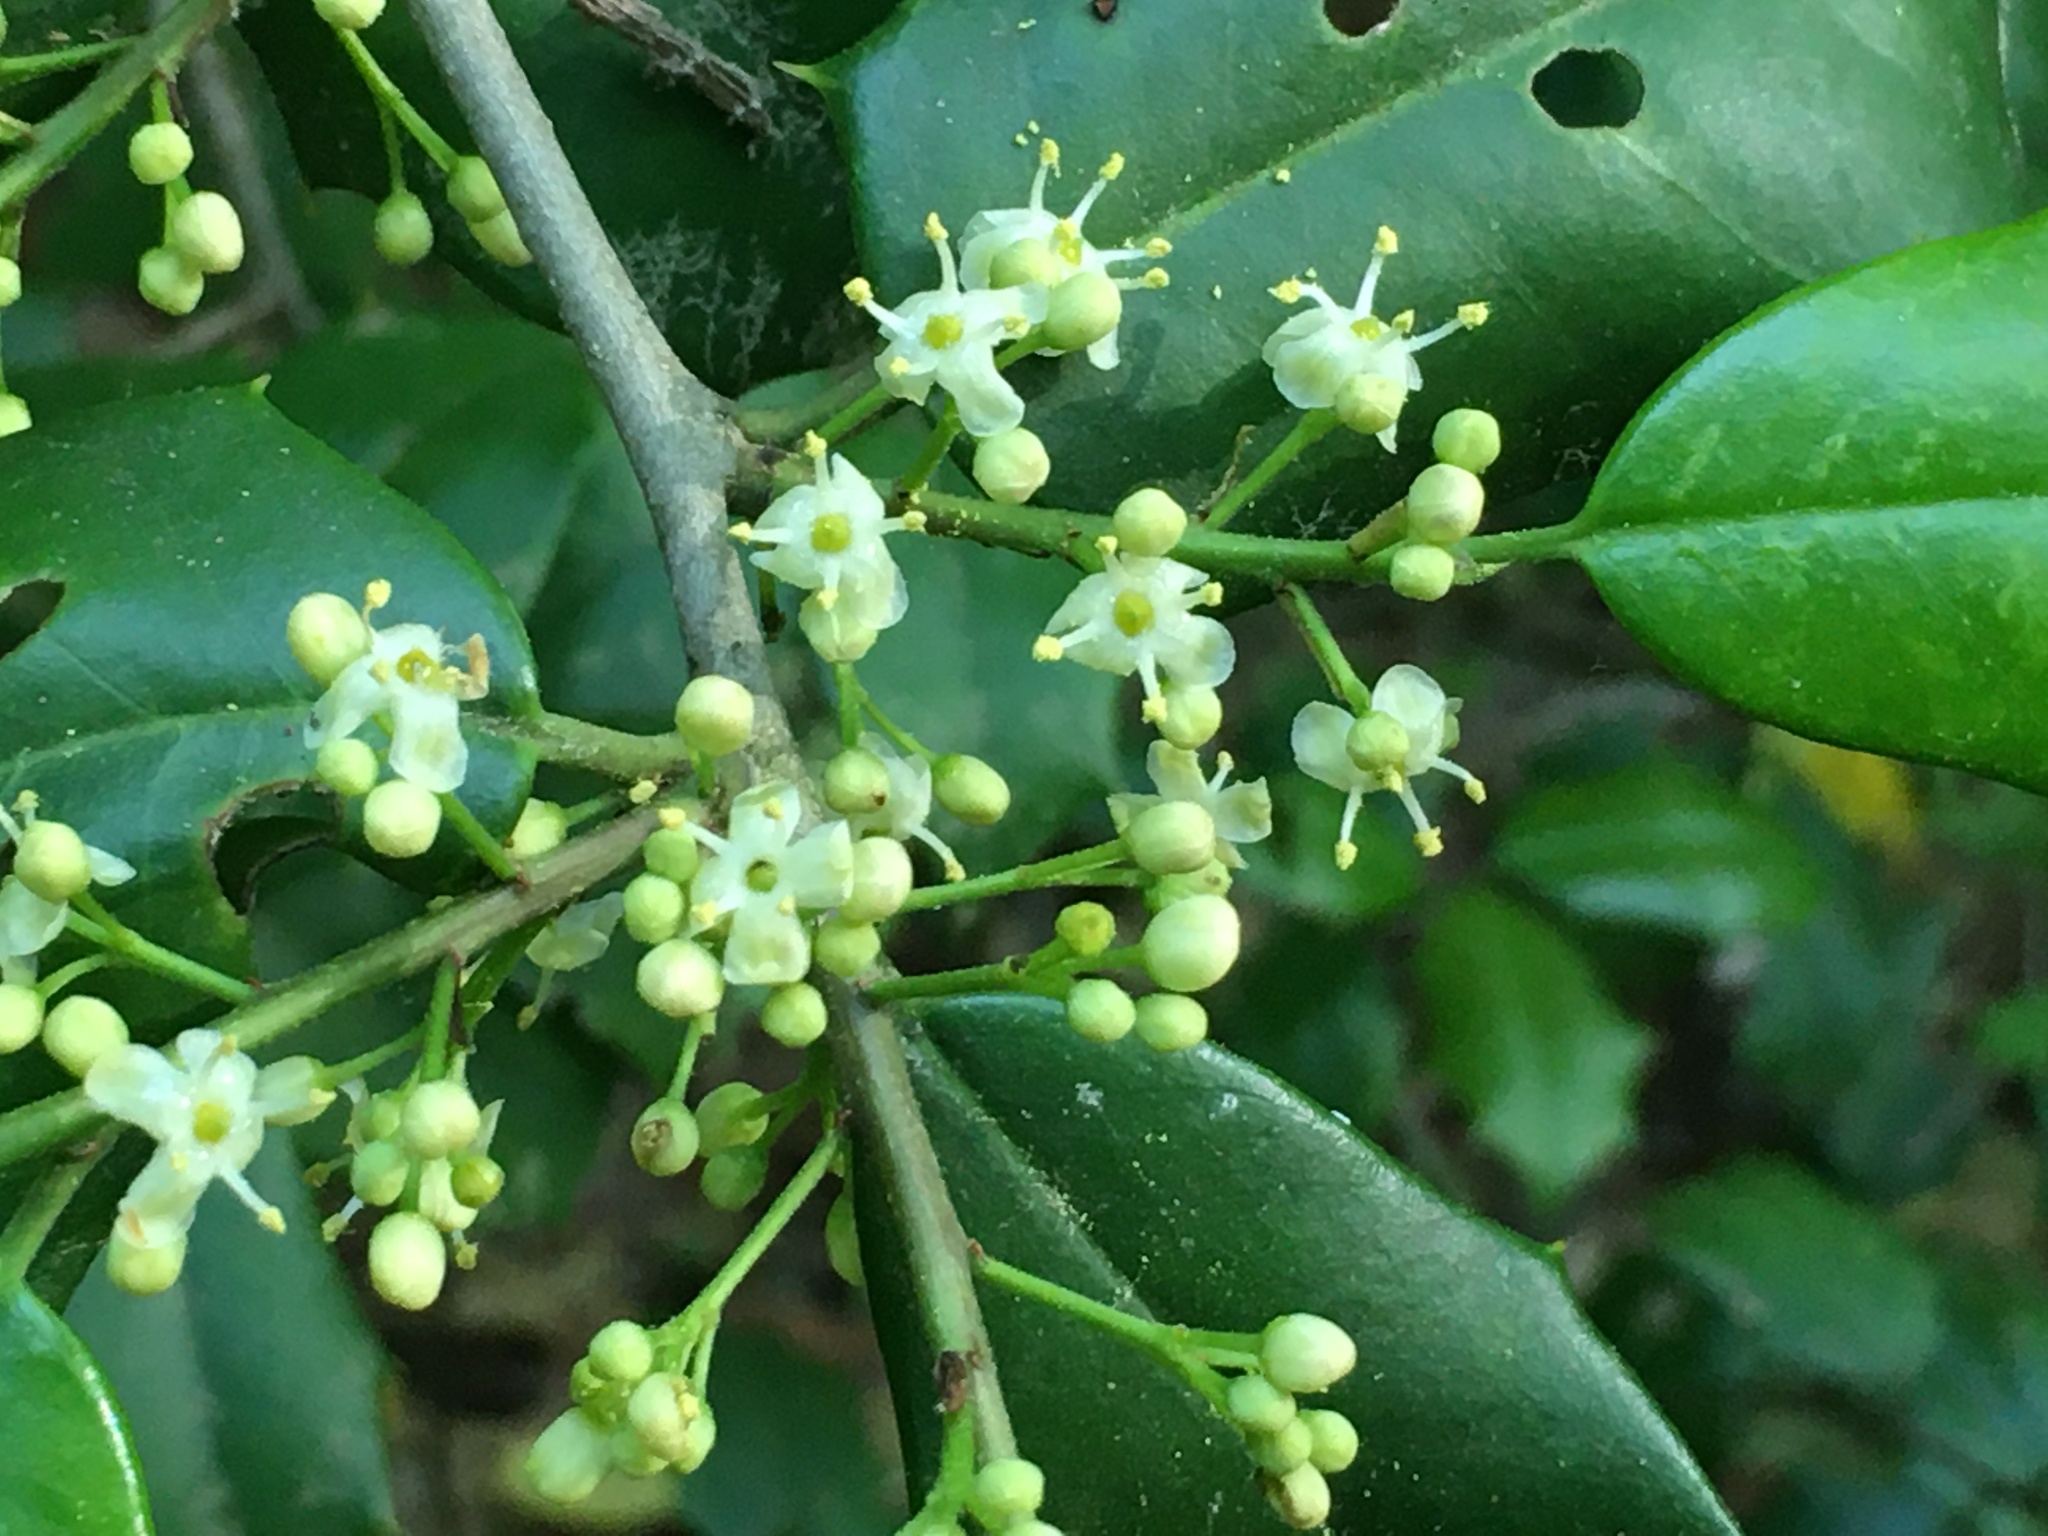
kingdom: Plantae
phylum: Tracheophyta
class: Magnoliopsida
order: Aquifoliales
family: Aquifoliaceae
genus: Ilex
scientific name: Ilex opaca
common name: American holly
